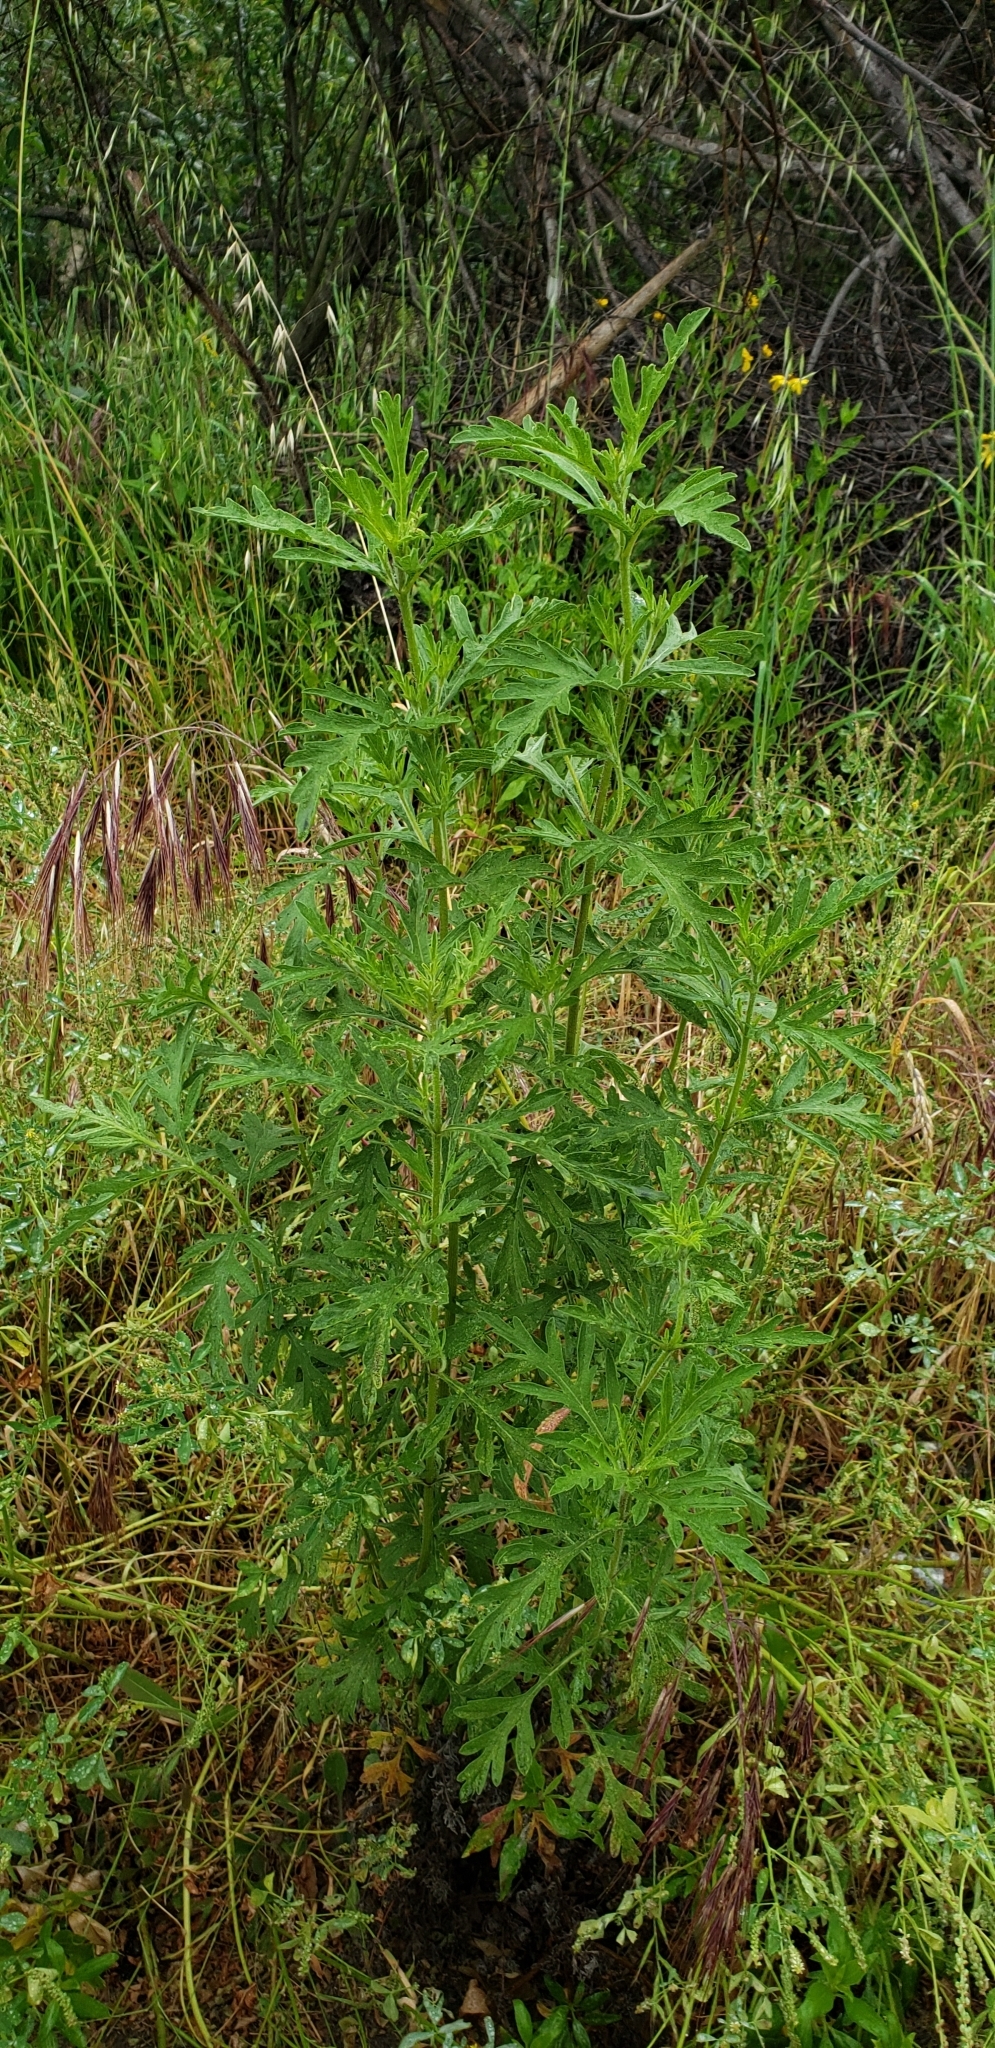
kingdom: Plantae
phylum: Tracheophyta
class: Magnoliopsida
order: Asterales
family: Asteraceae
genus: Ambrosia
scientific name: Ambrosia psilostachya
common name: Perennial ragweed
